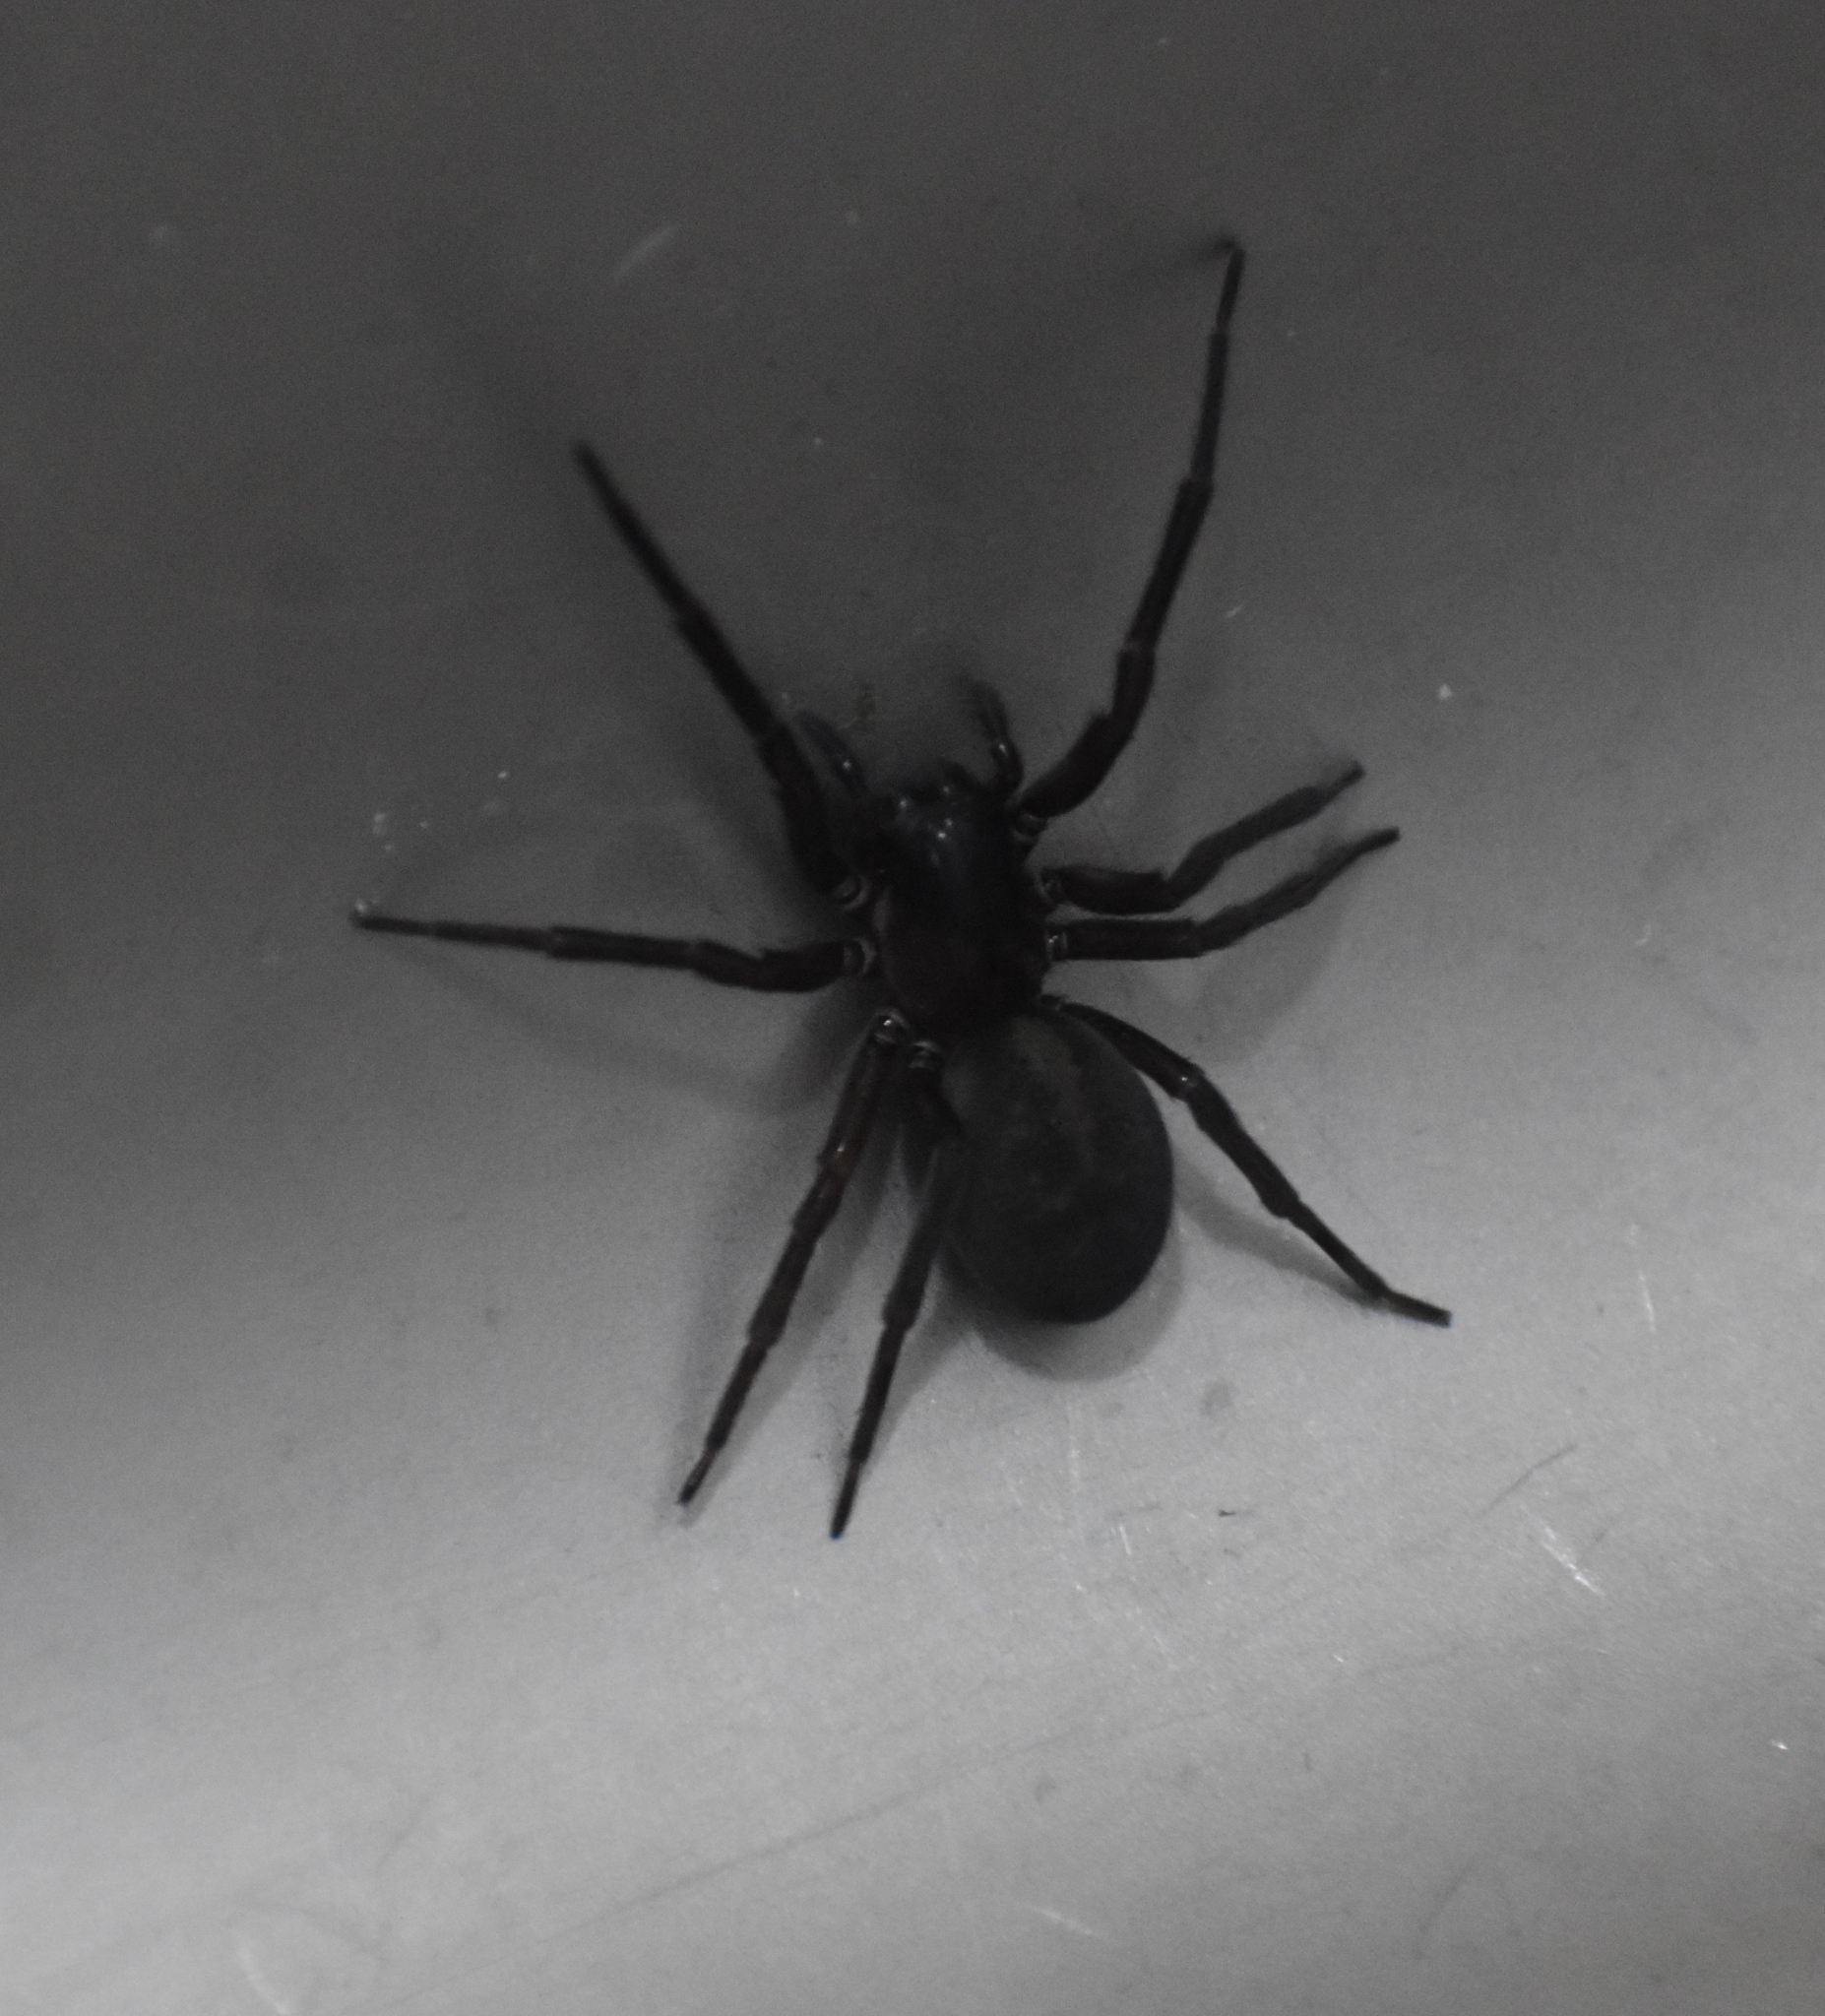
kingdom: Animalia
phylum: Arthropoda
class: Arachnida
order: Araneae
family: Amaurobiidae
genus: Amaurobius
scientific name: Amaurobius ferox
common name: Black laceweaver
